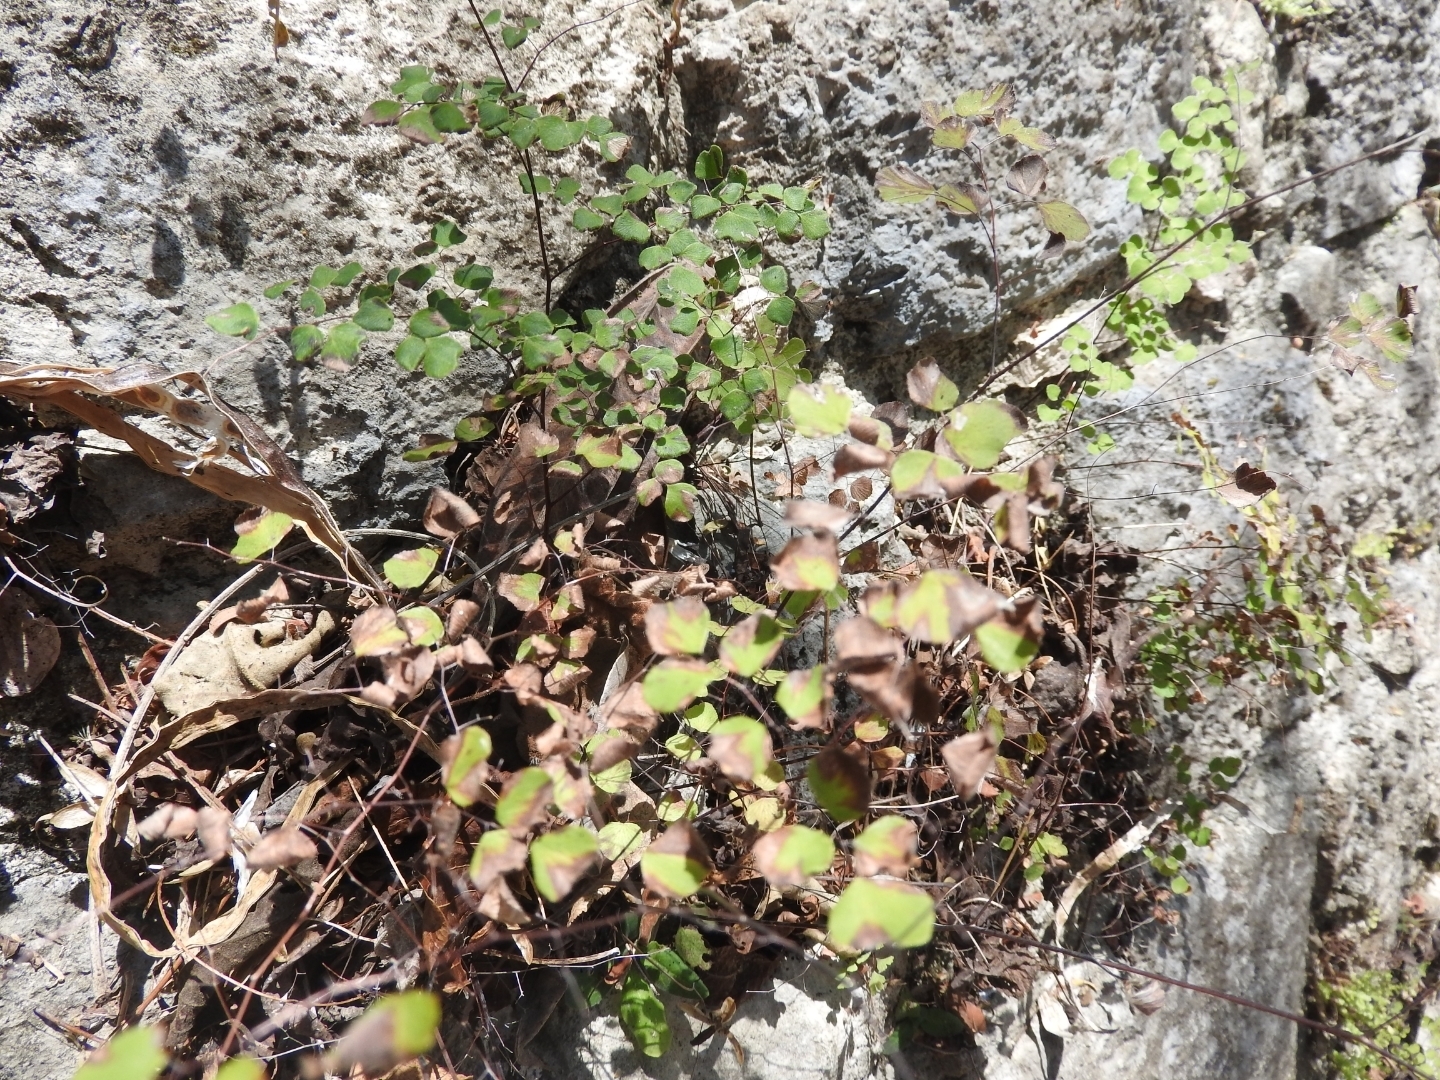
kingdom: Plantae
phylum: Tracheophyta
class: Polypodiopsida
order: Polypodiales
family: Pteridaceae
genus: Adiantum
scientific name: Adiantum tricholepis
